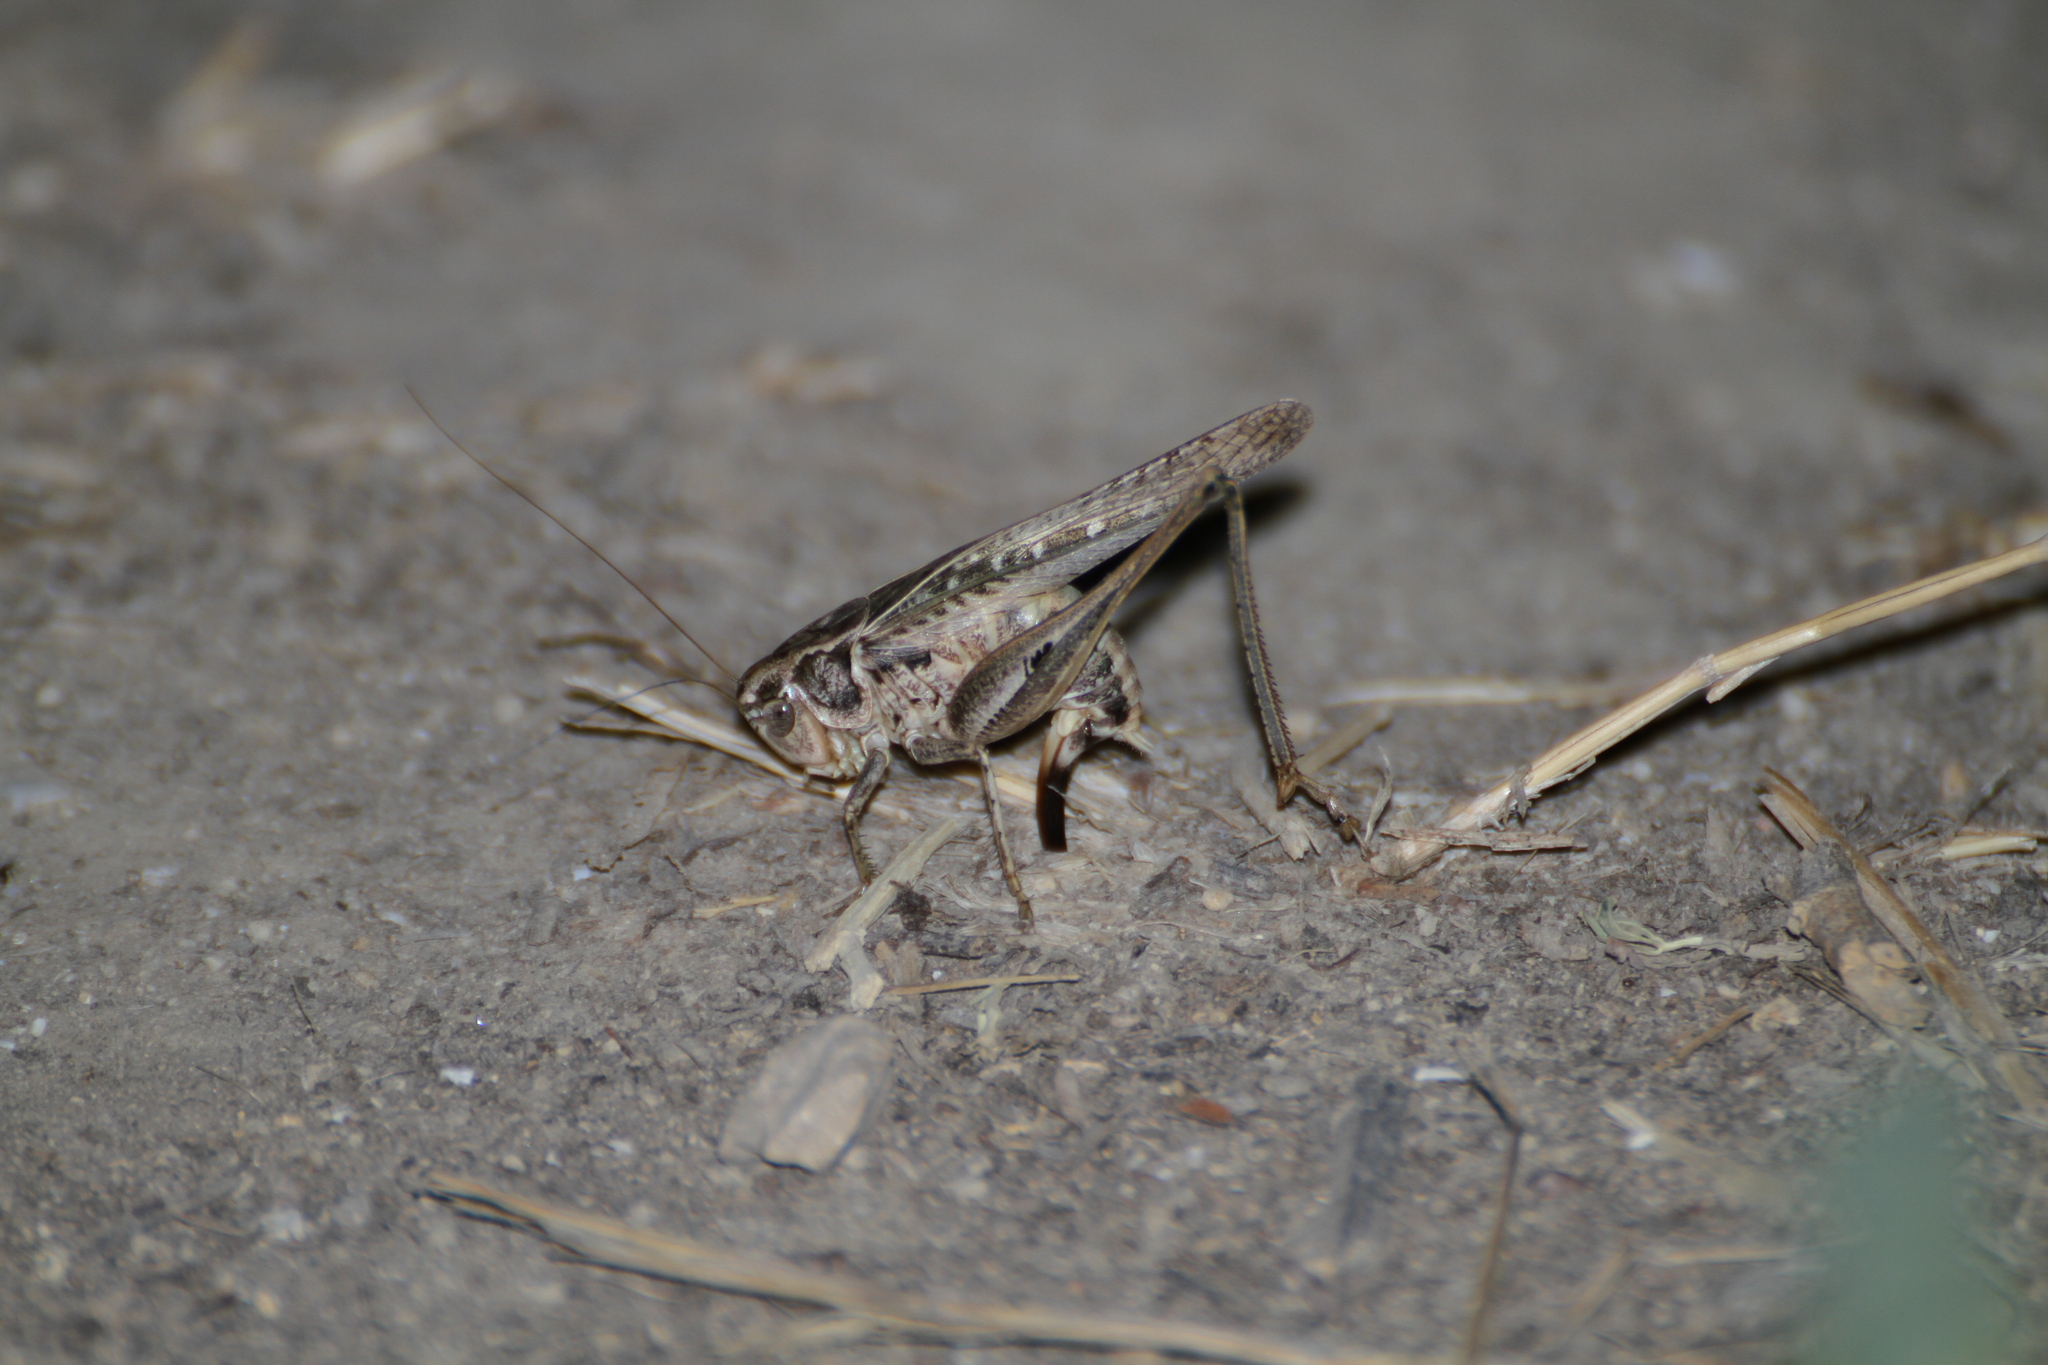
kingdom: Animalia
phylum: Arthropoda
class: Insecta
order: Orthoptera
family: Tettigoniidae
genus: Platycleis
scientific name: Platycleis affinis
